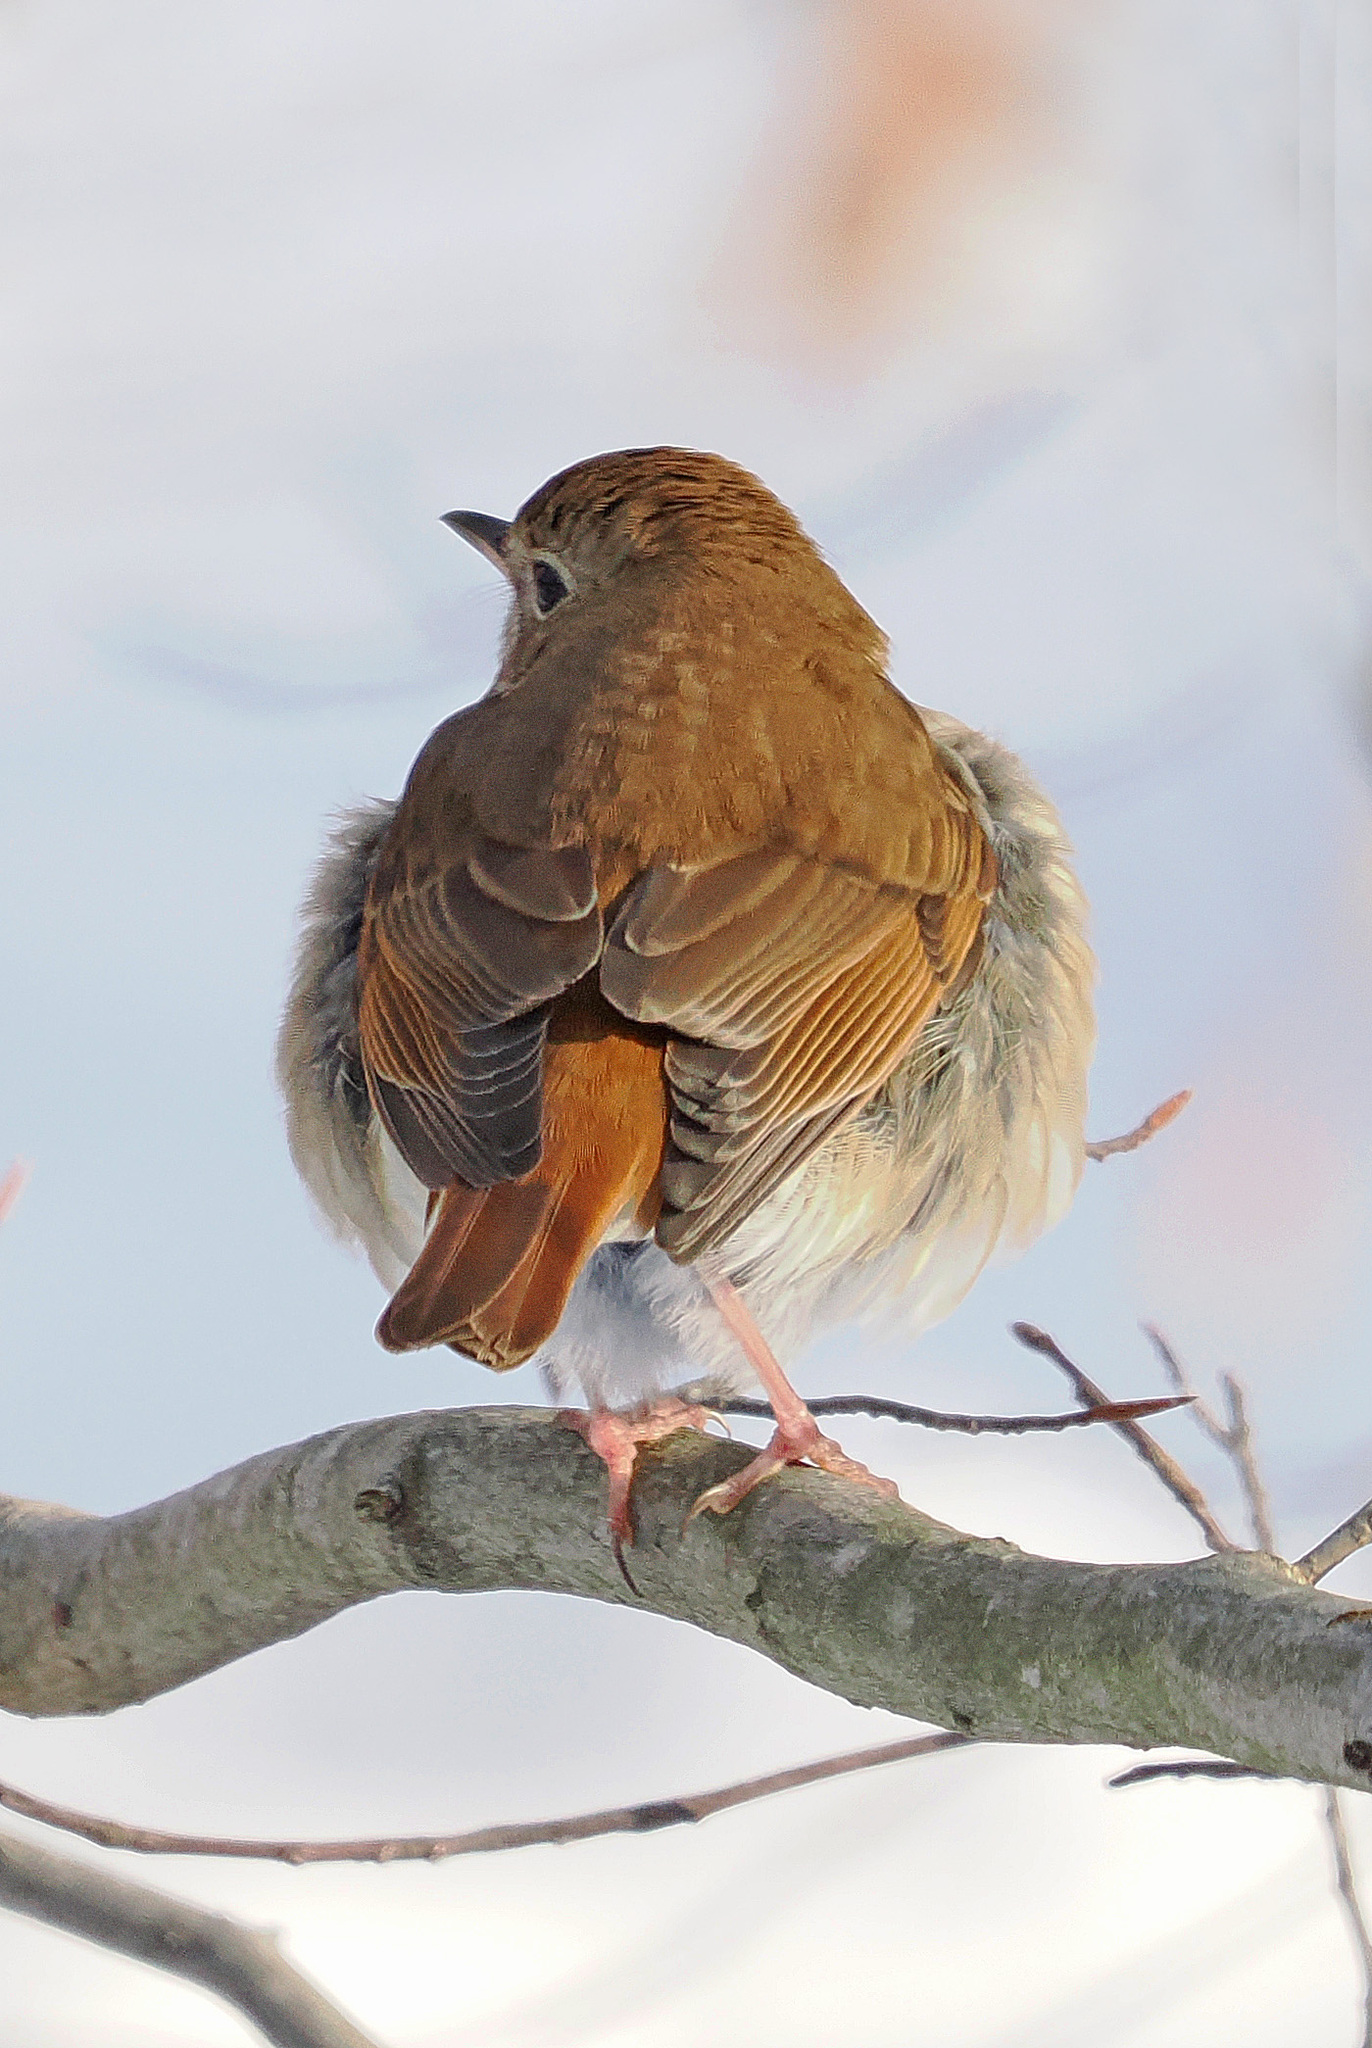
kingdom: Animalia
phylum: Chordata
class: Aves
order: Passeriformes
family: Turdidae
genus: Catharus
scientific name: Catharus guttatus
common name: Hermit thrush
